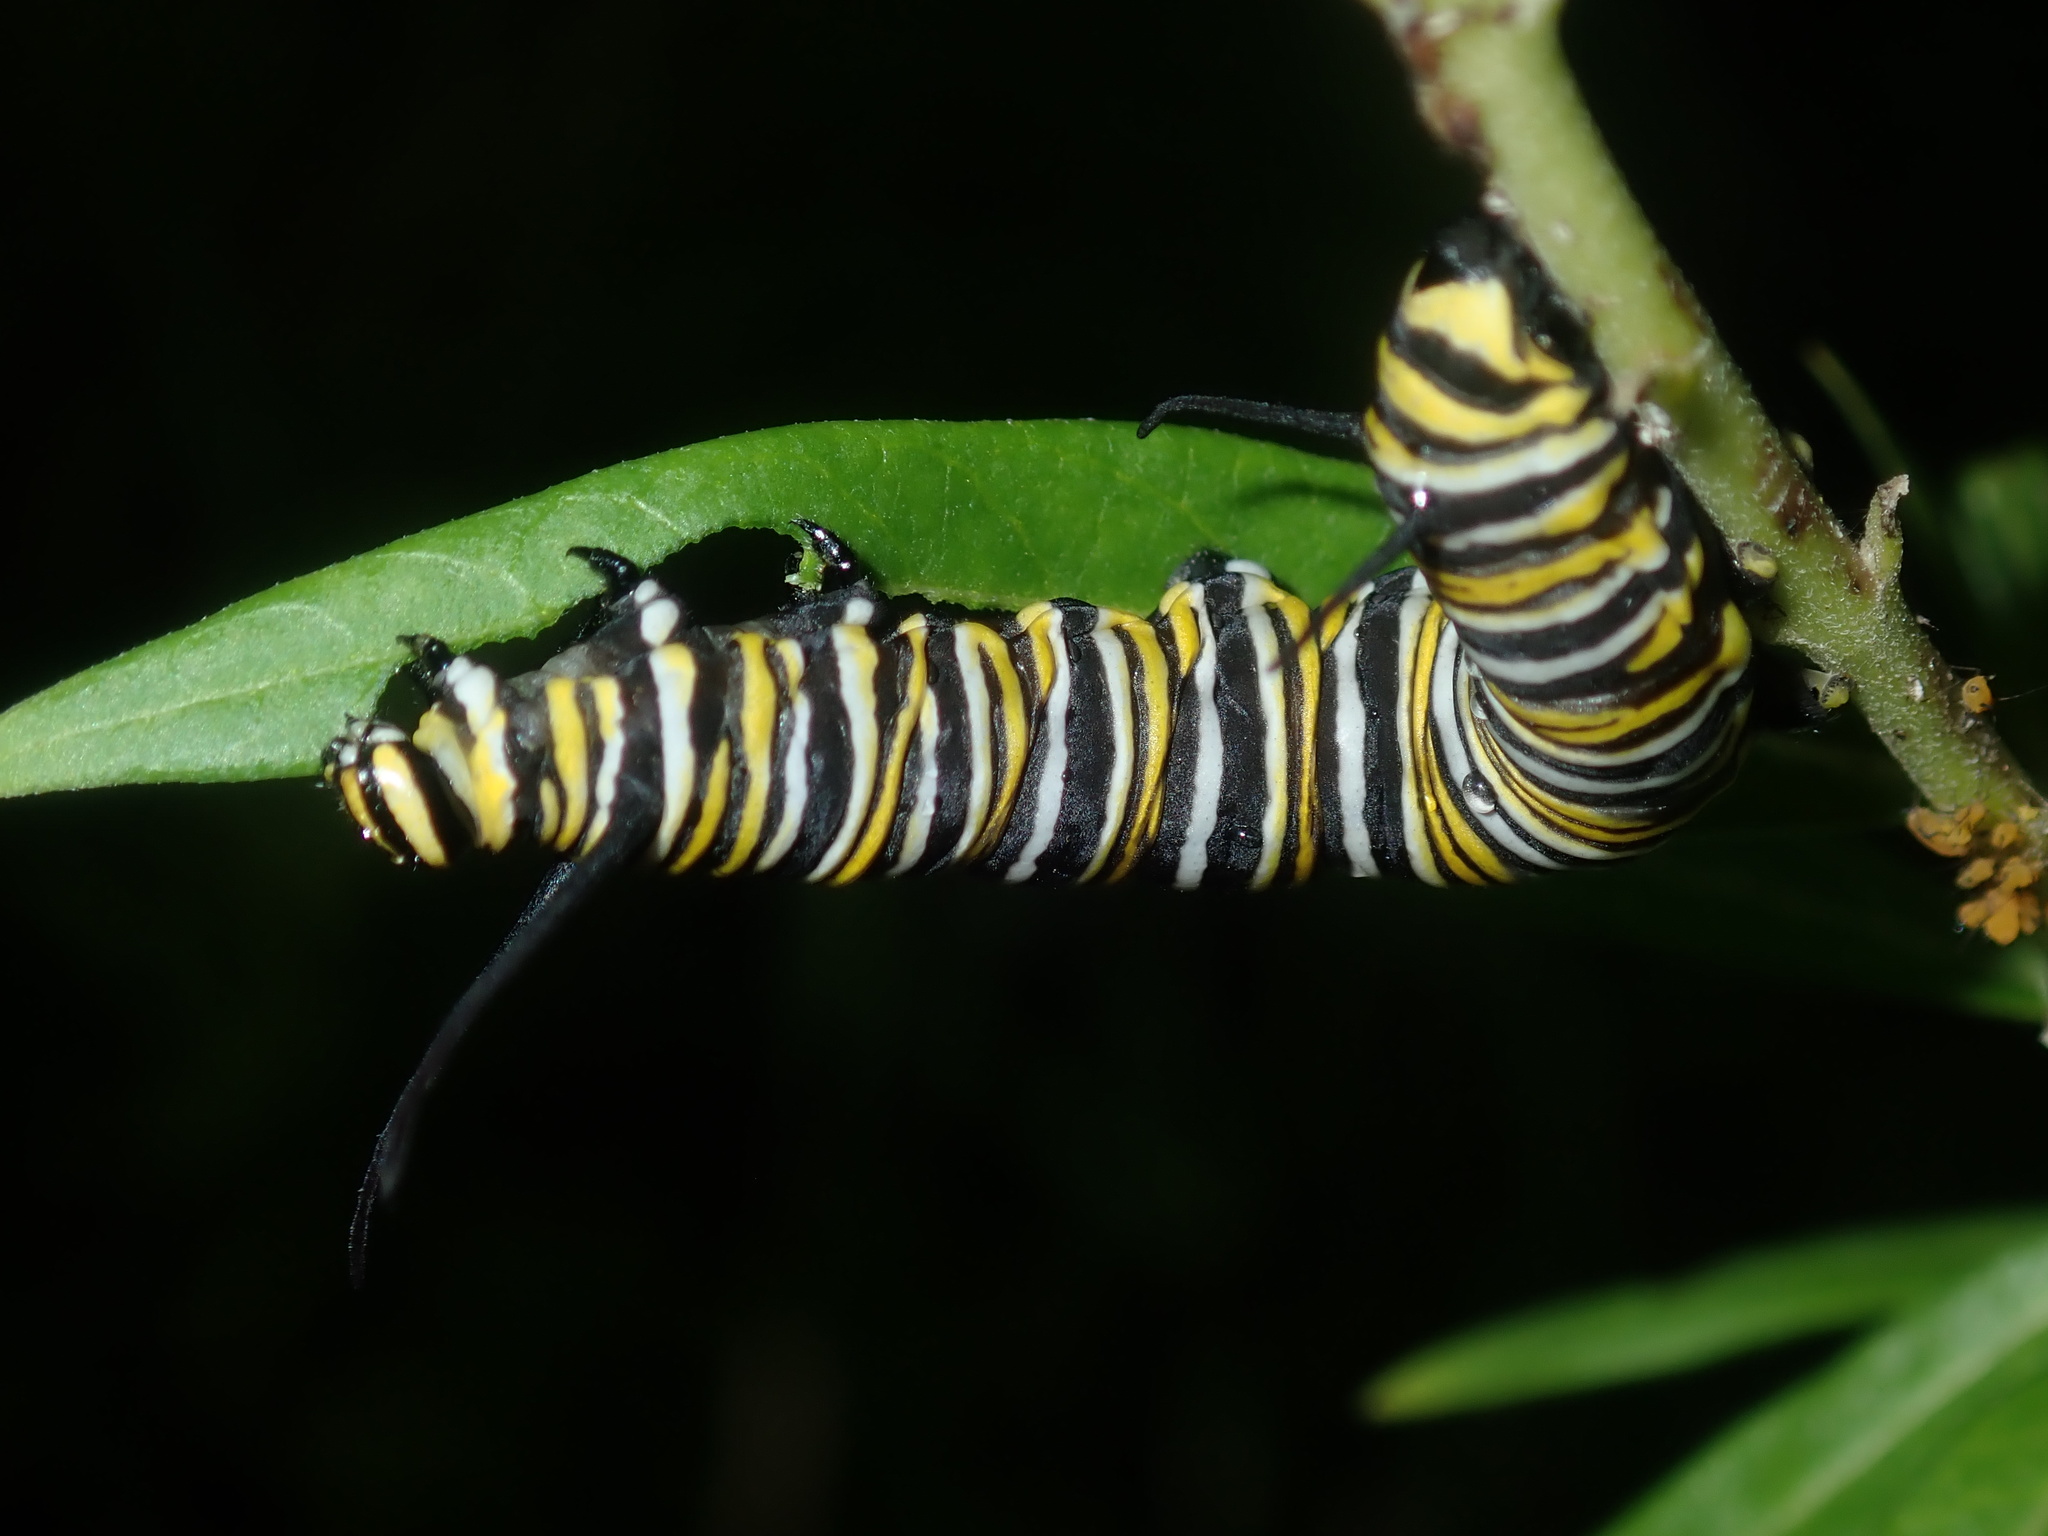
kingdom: Animalia
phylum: Arthropoda
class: Insecta
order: Lepidoptera
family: Nymphalidae
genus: Danaus
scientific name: Danaus plexippus
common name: Monarch
